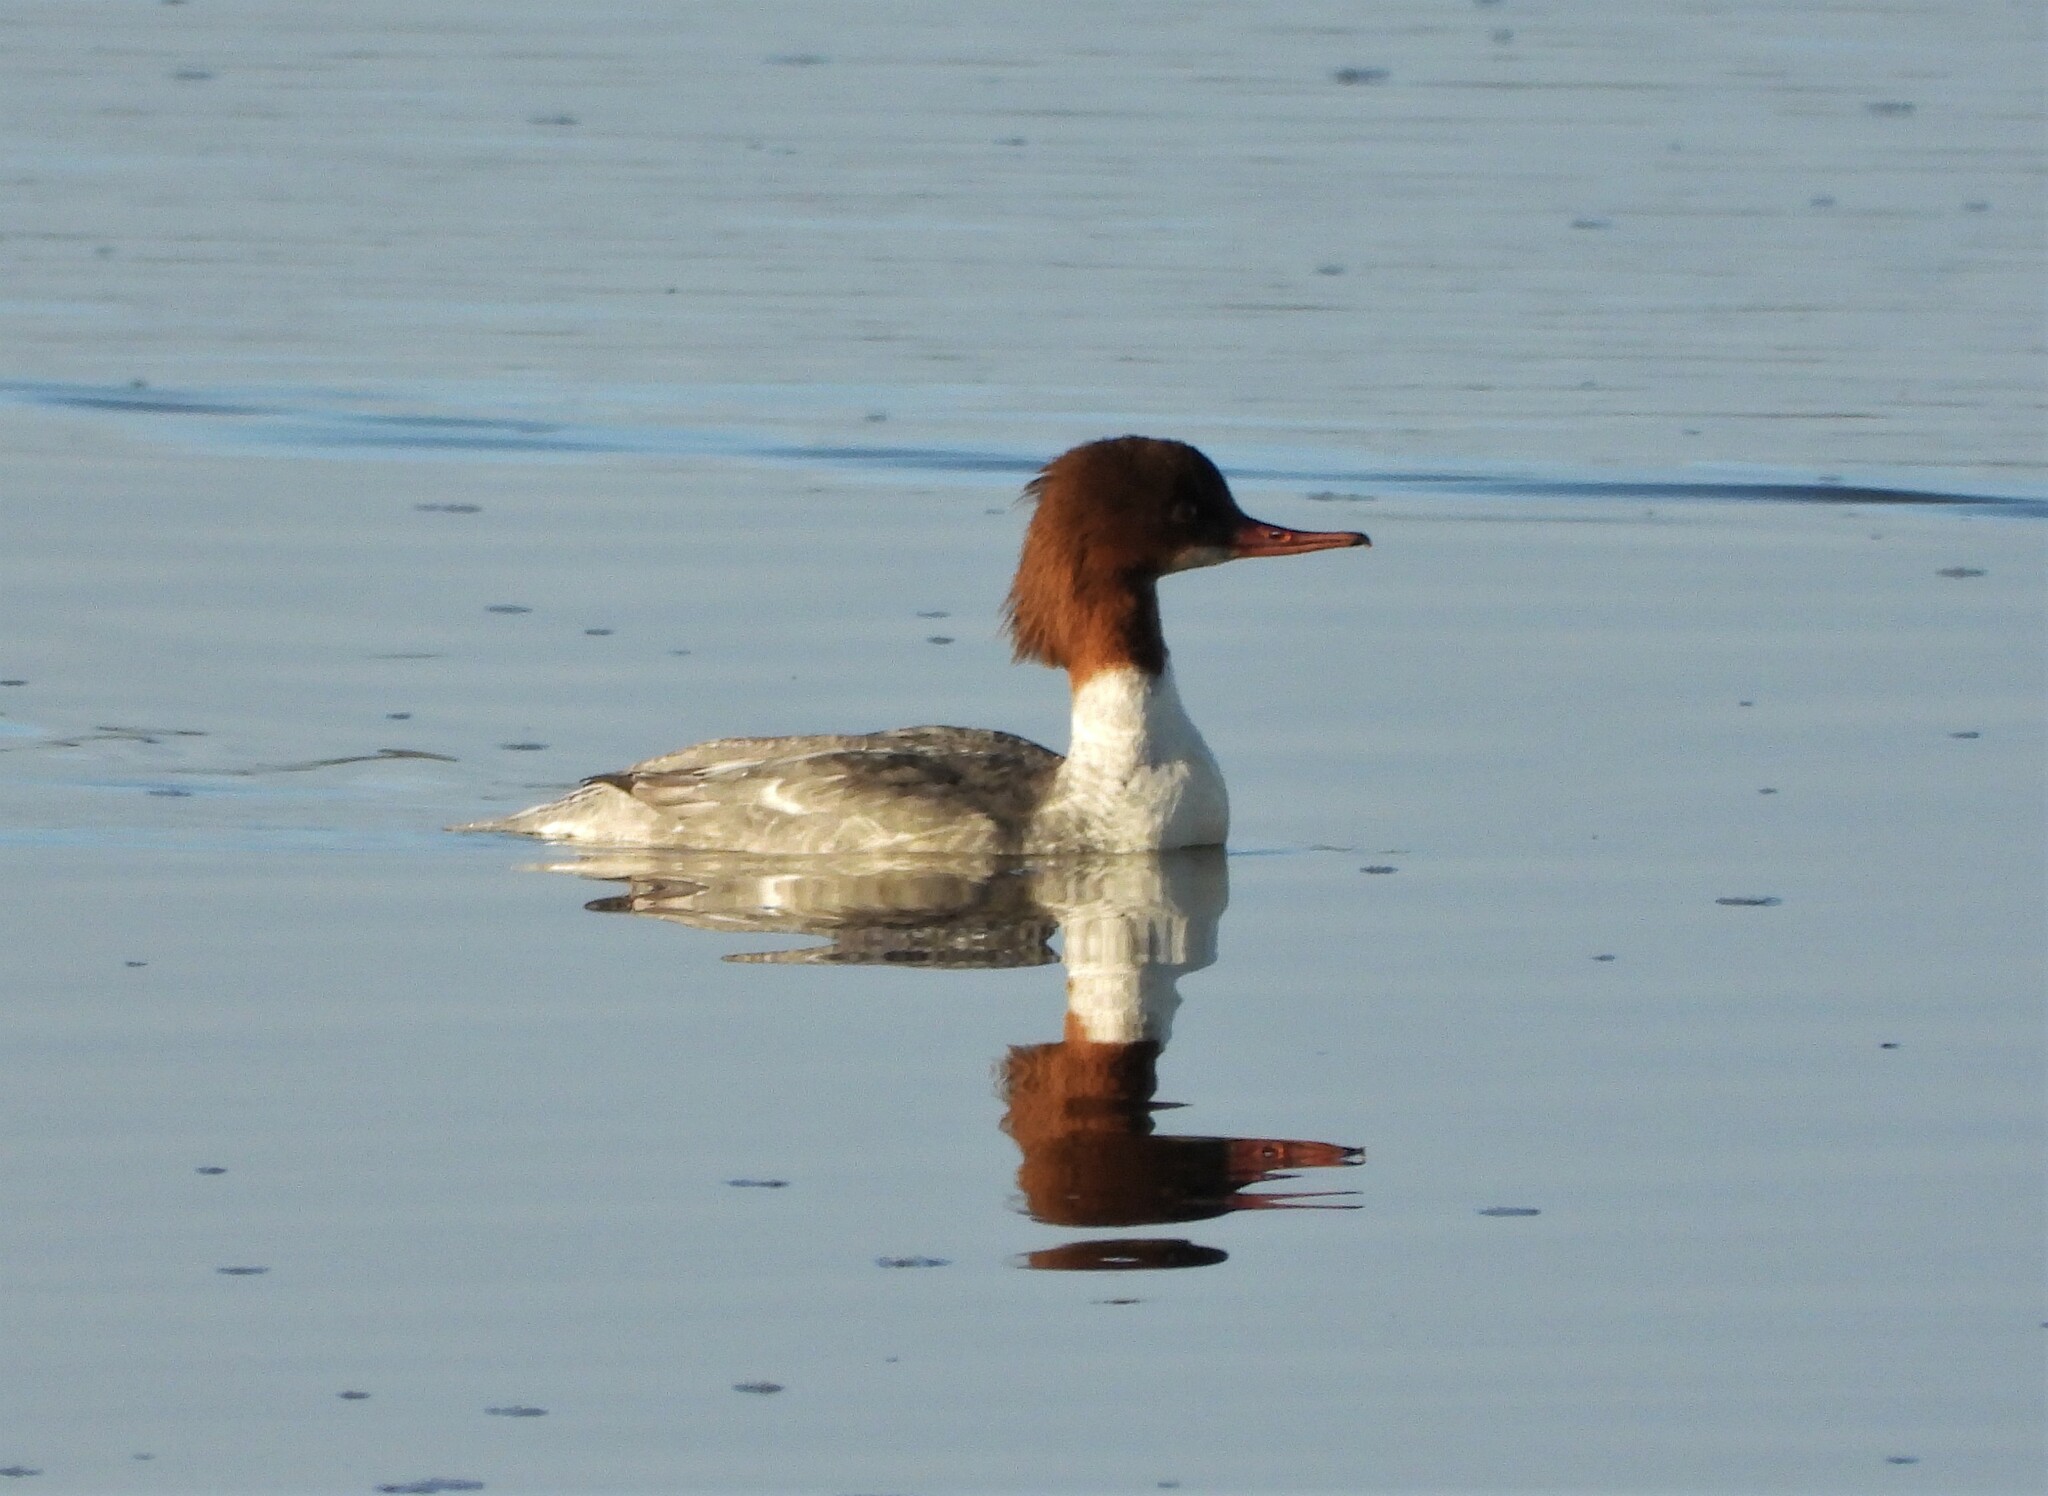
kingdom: Animalia
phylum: Chordata
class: Aves
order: Anseriformes
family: Anatidae
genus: Mergus
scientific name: Mergus merganser
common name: Common merganser
